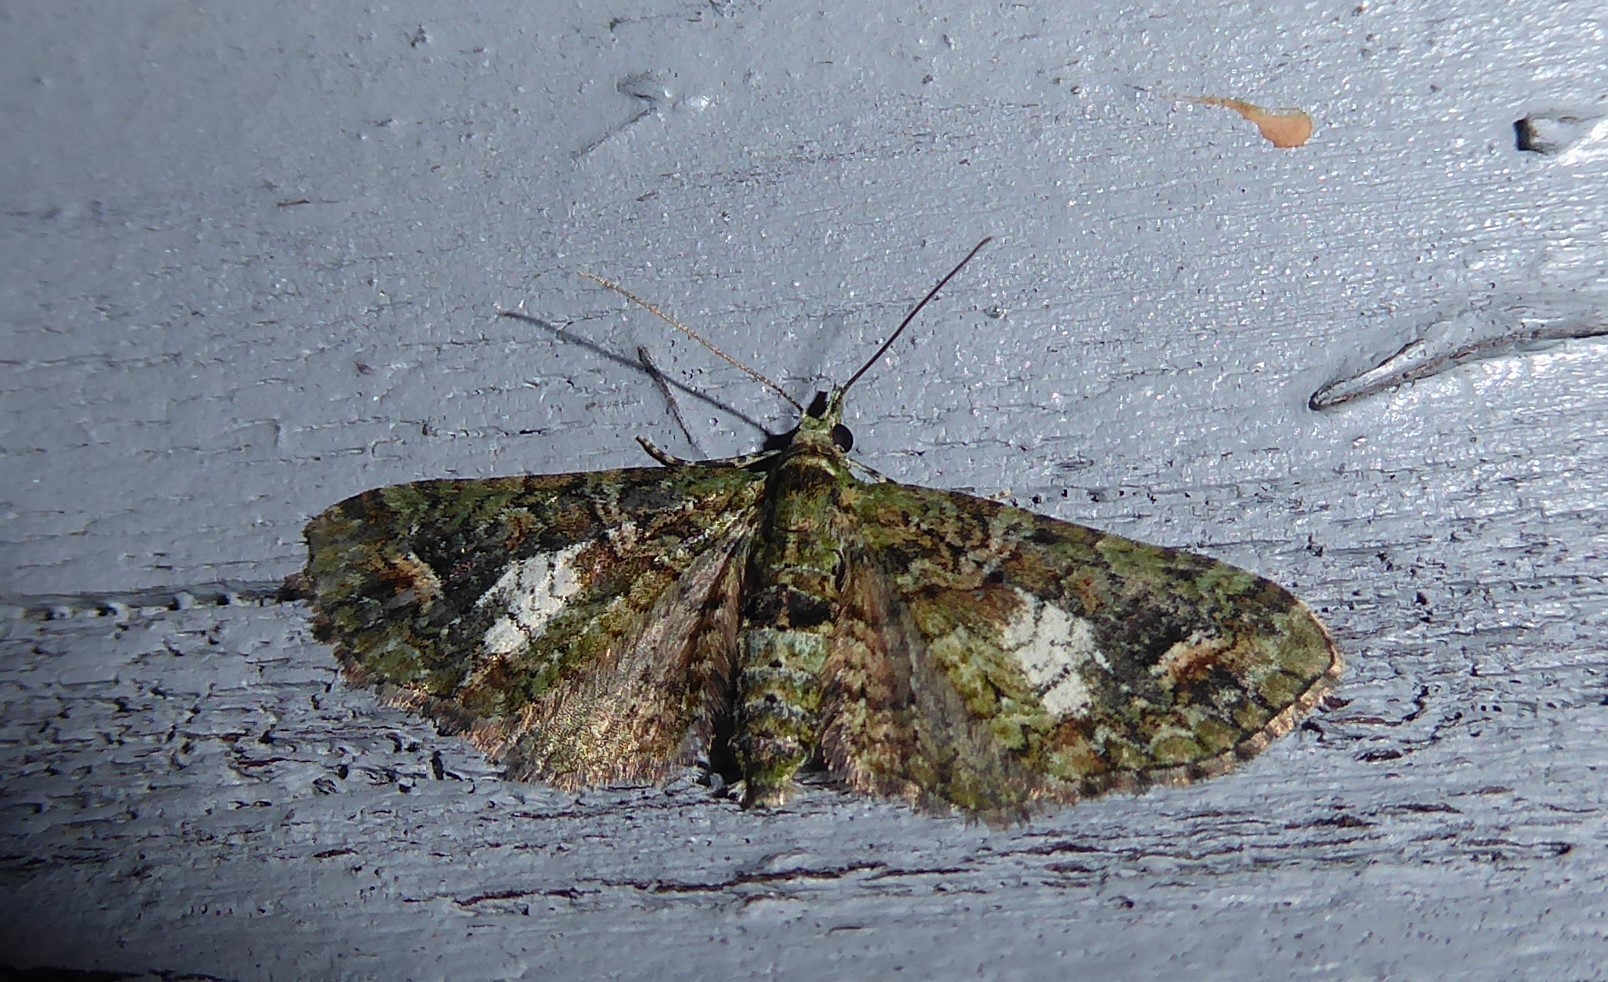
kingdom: Animalia
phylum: Arthropoda
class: Insecta
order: Lepidoptera
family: Geometridae
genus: Idaea
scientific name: Idaea mutanda
